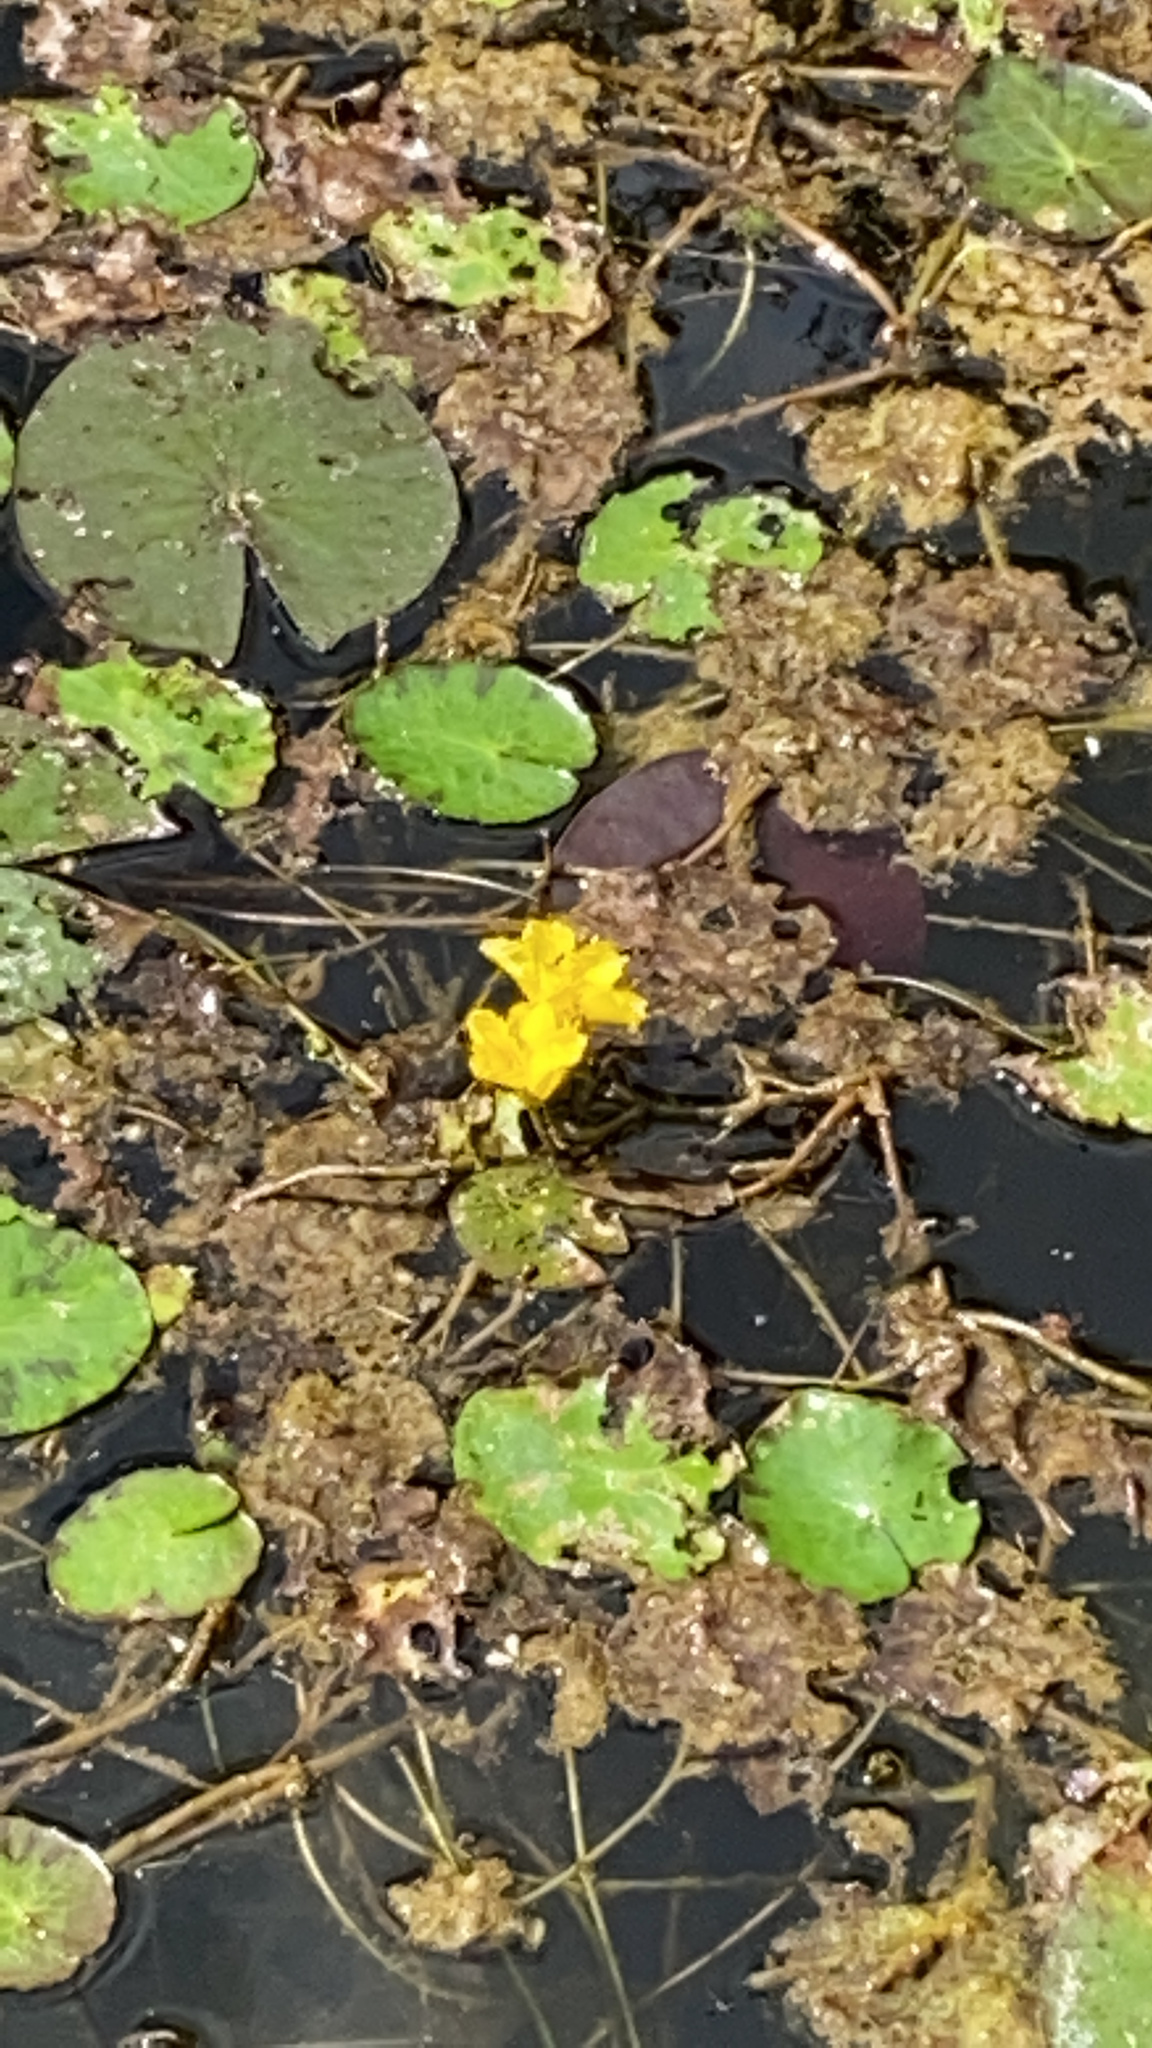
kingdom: Plantae
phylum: Tracheophyta
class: Magnoliopsida
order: Asterales
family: Menyanthaceae
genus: Nymphoides
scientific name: Nymphoides peltata
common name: Fringed water-lily
